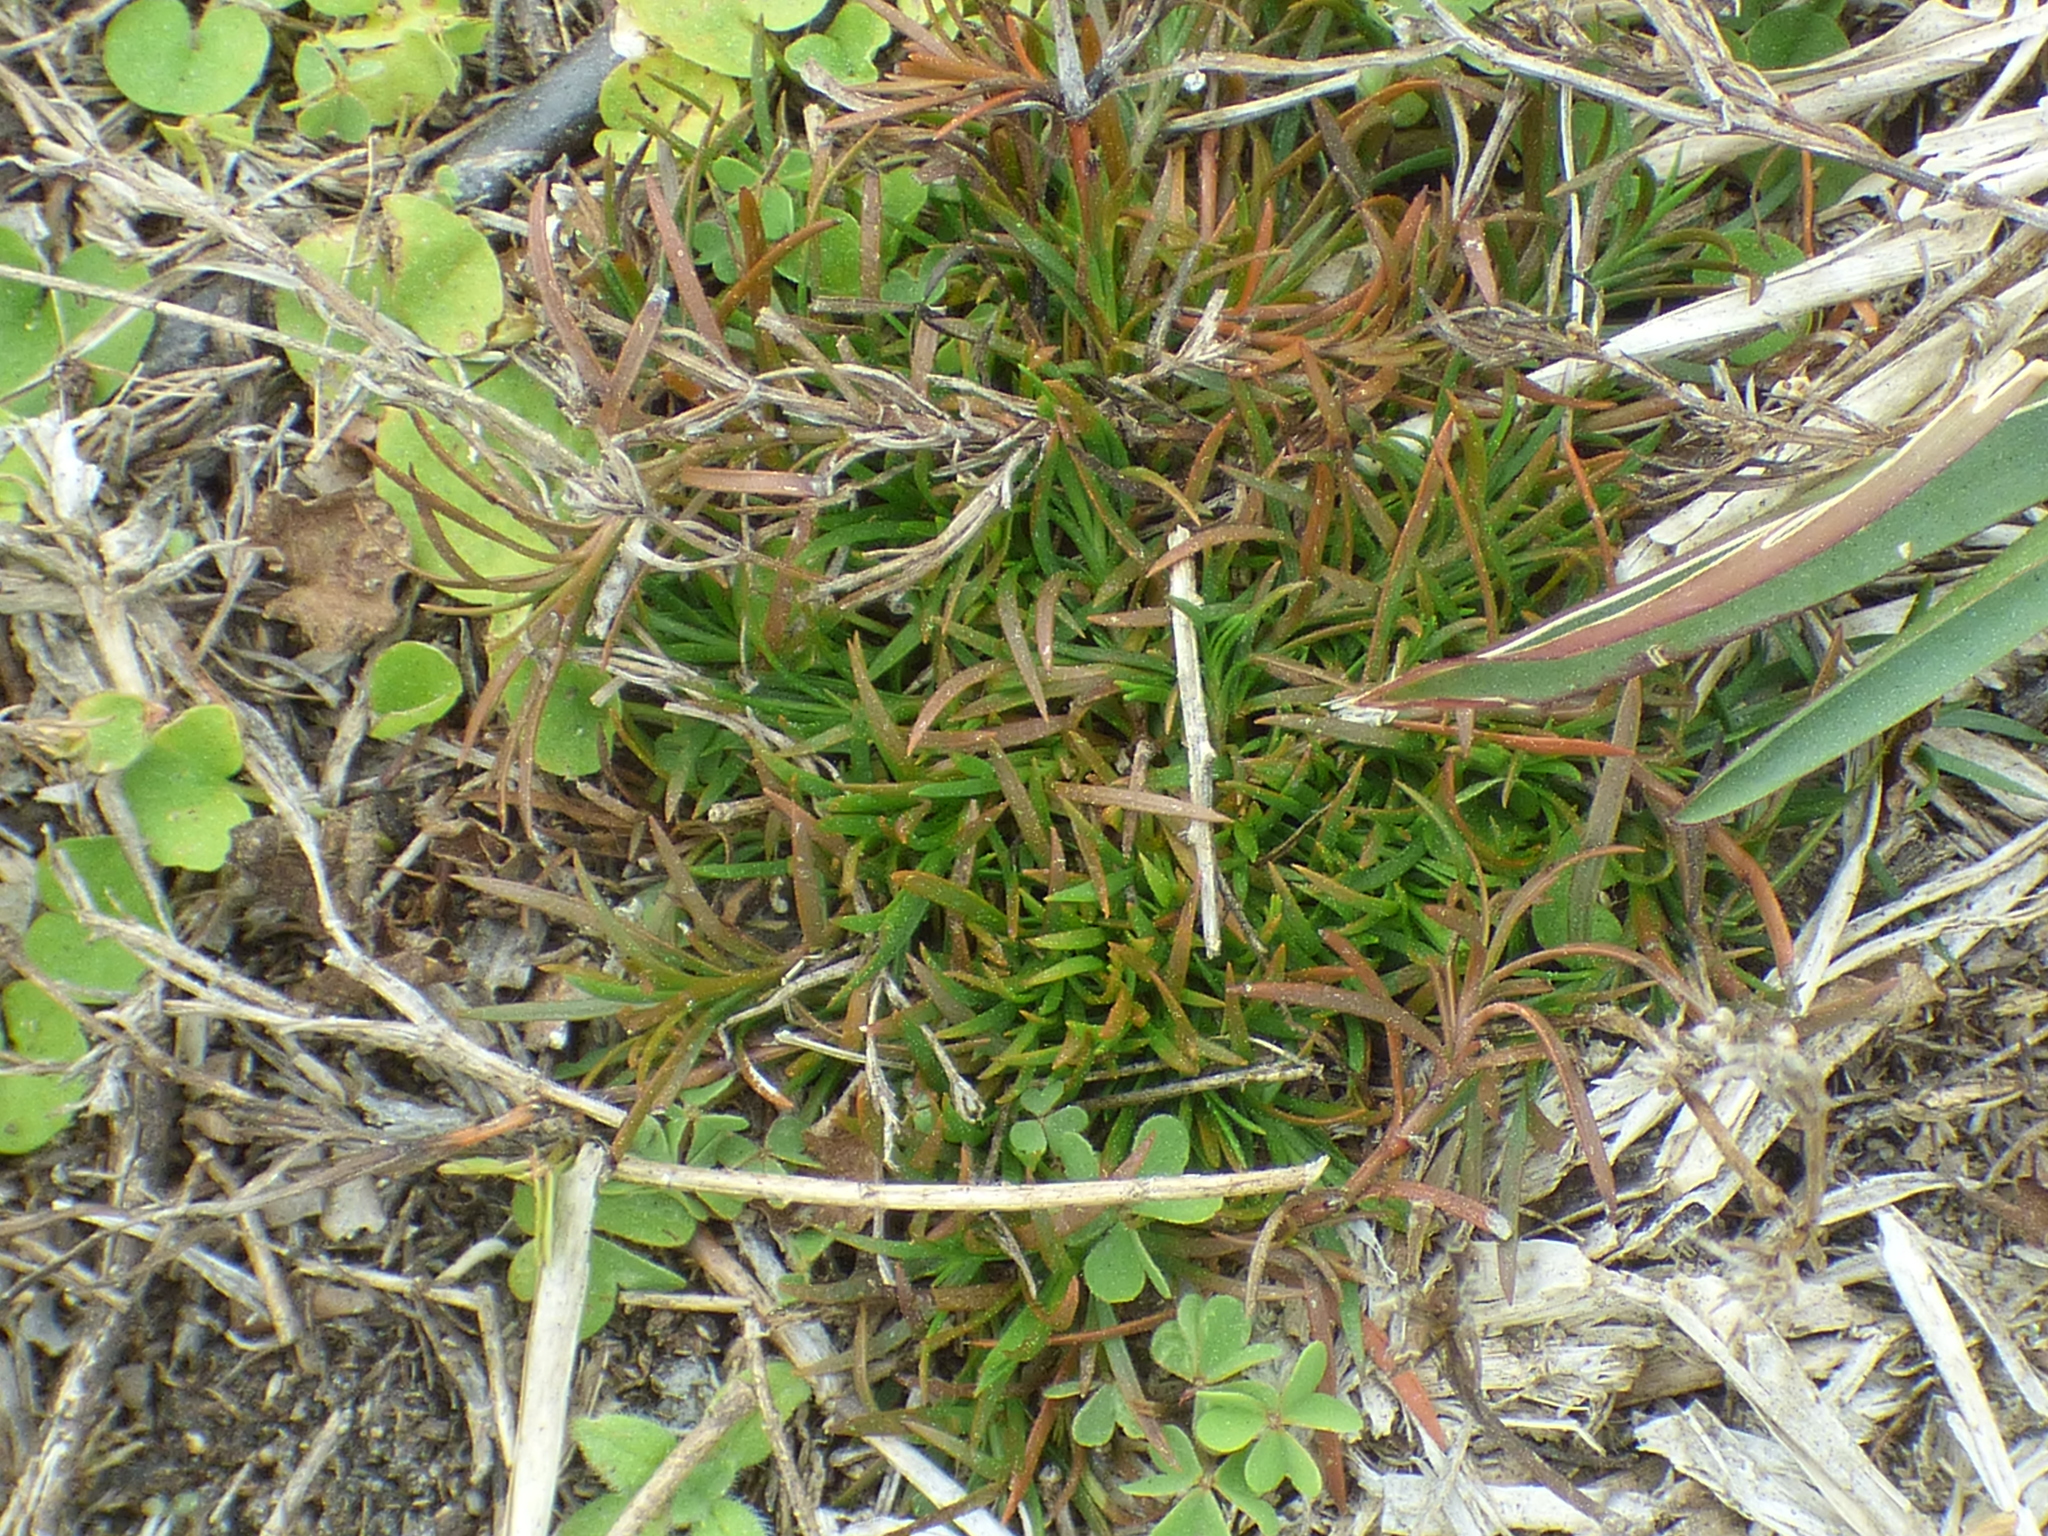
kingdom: Plantae
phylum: Tracheophyta
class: Magnoliopsida
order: Lamiales
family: Tetrachondraceae
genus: Polypremum
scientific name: Polypremum procumbens
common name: Juniper-leaf
